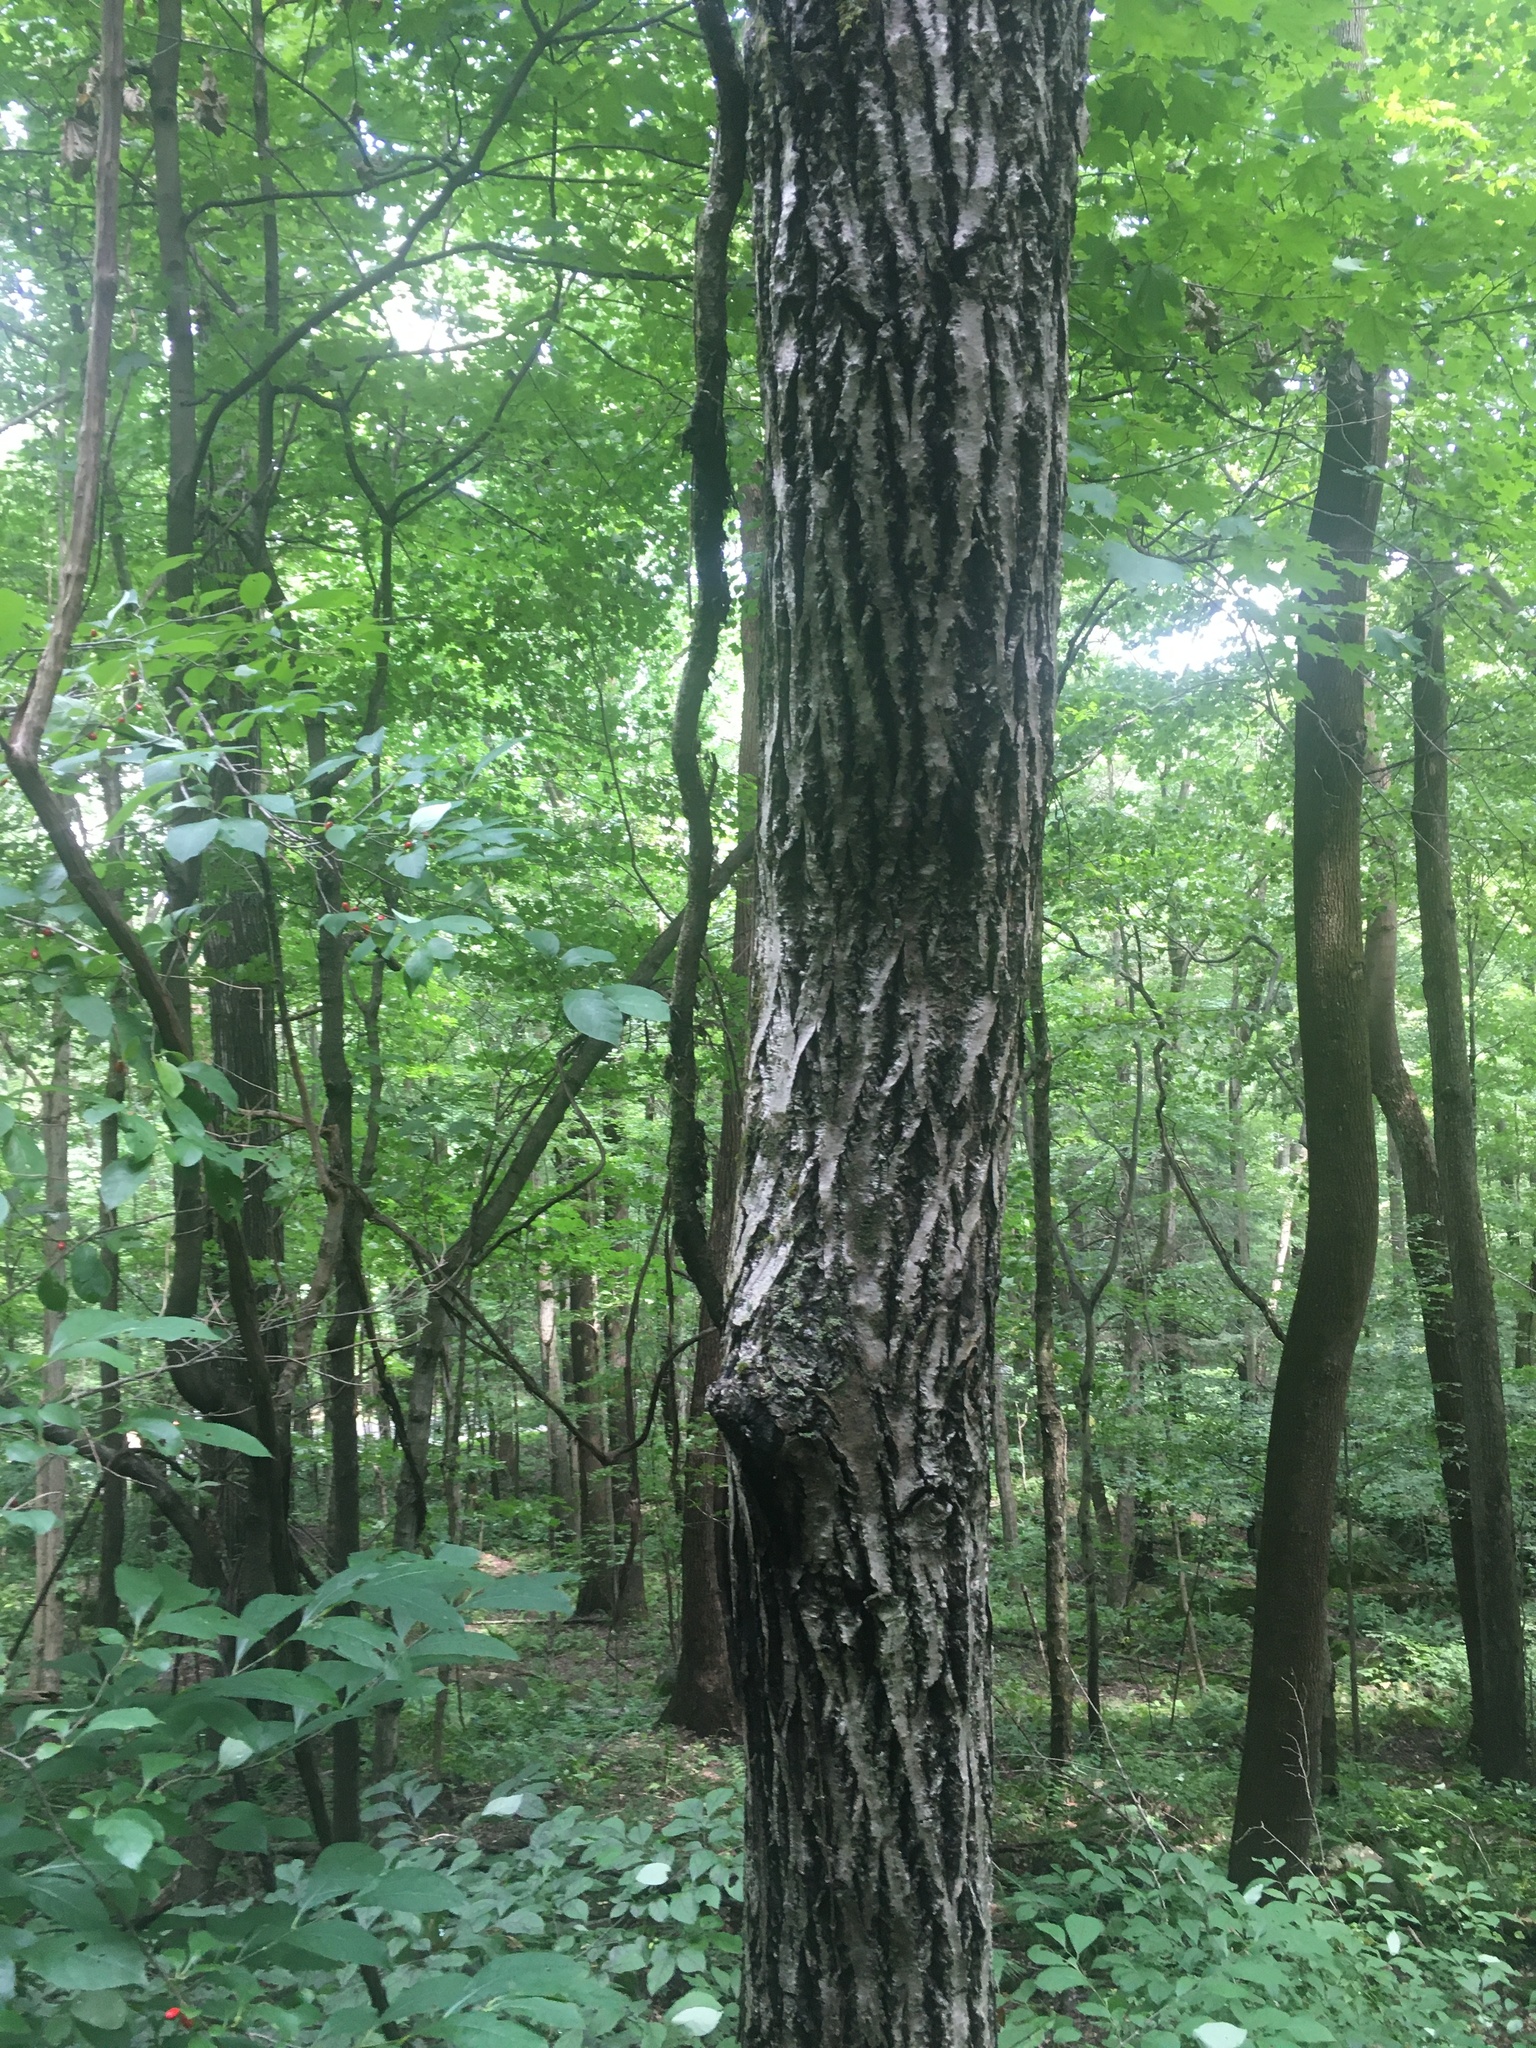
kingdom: Plantae
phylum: Tracheophyta
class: Magnoliopsida
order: Fagales
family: Juglandaceae
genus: Juglans
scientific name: Juglans cinerea
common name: Butternut
